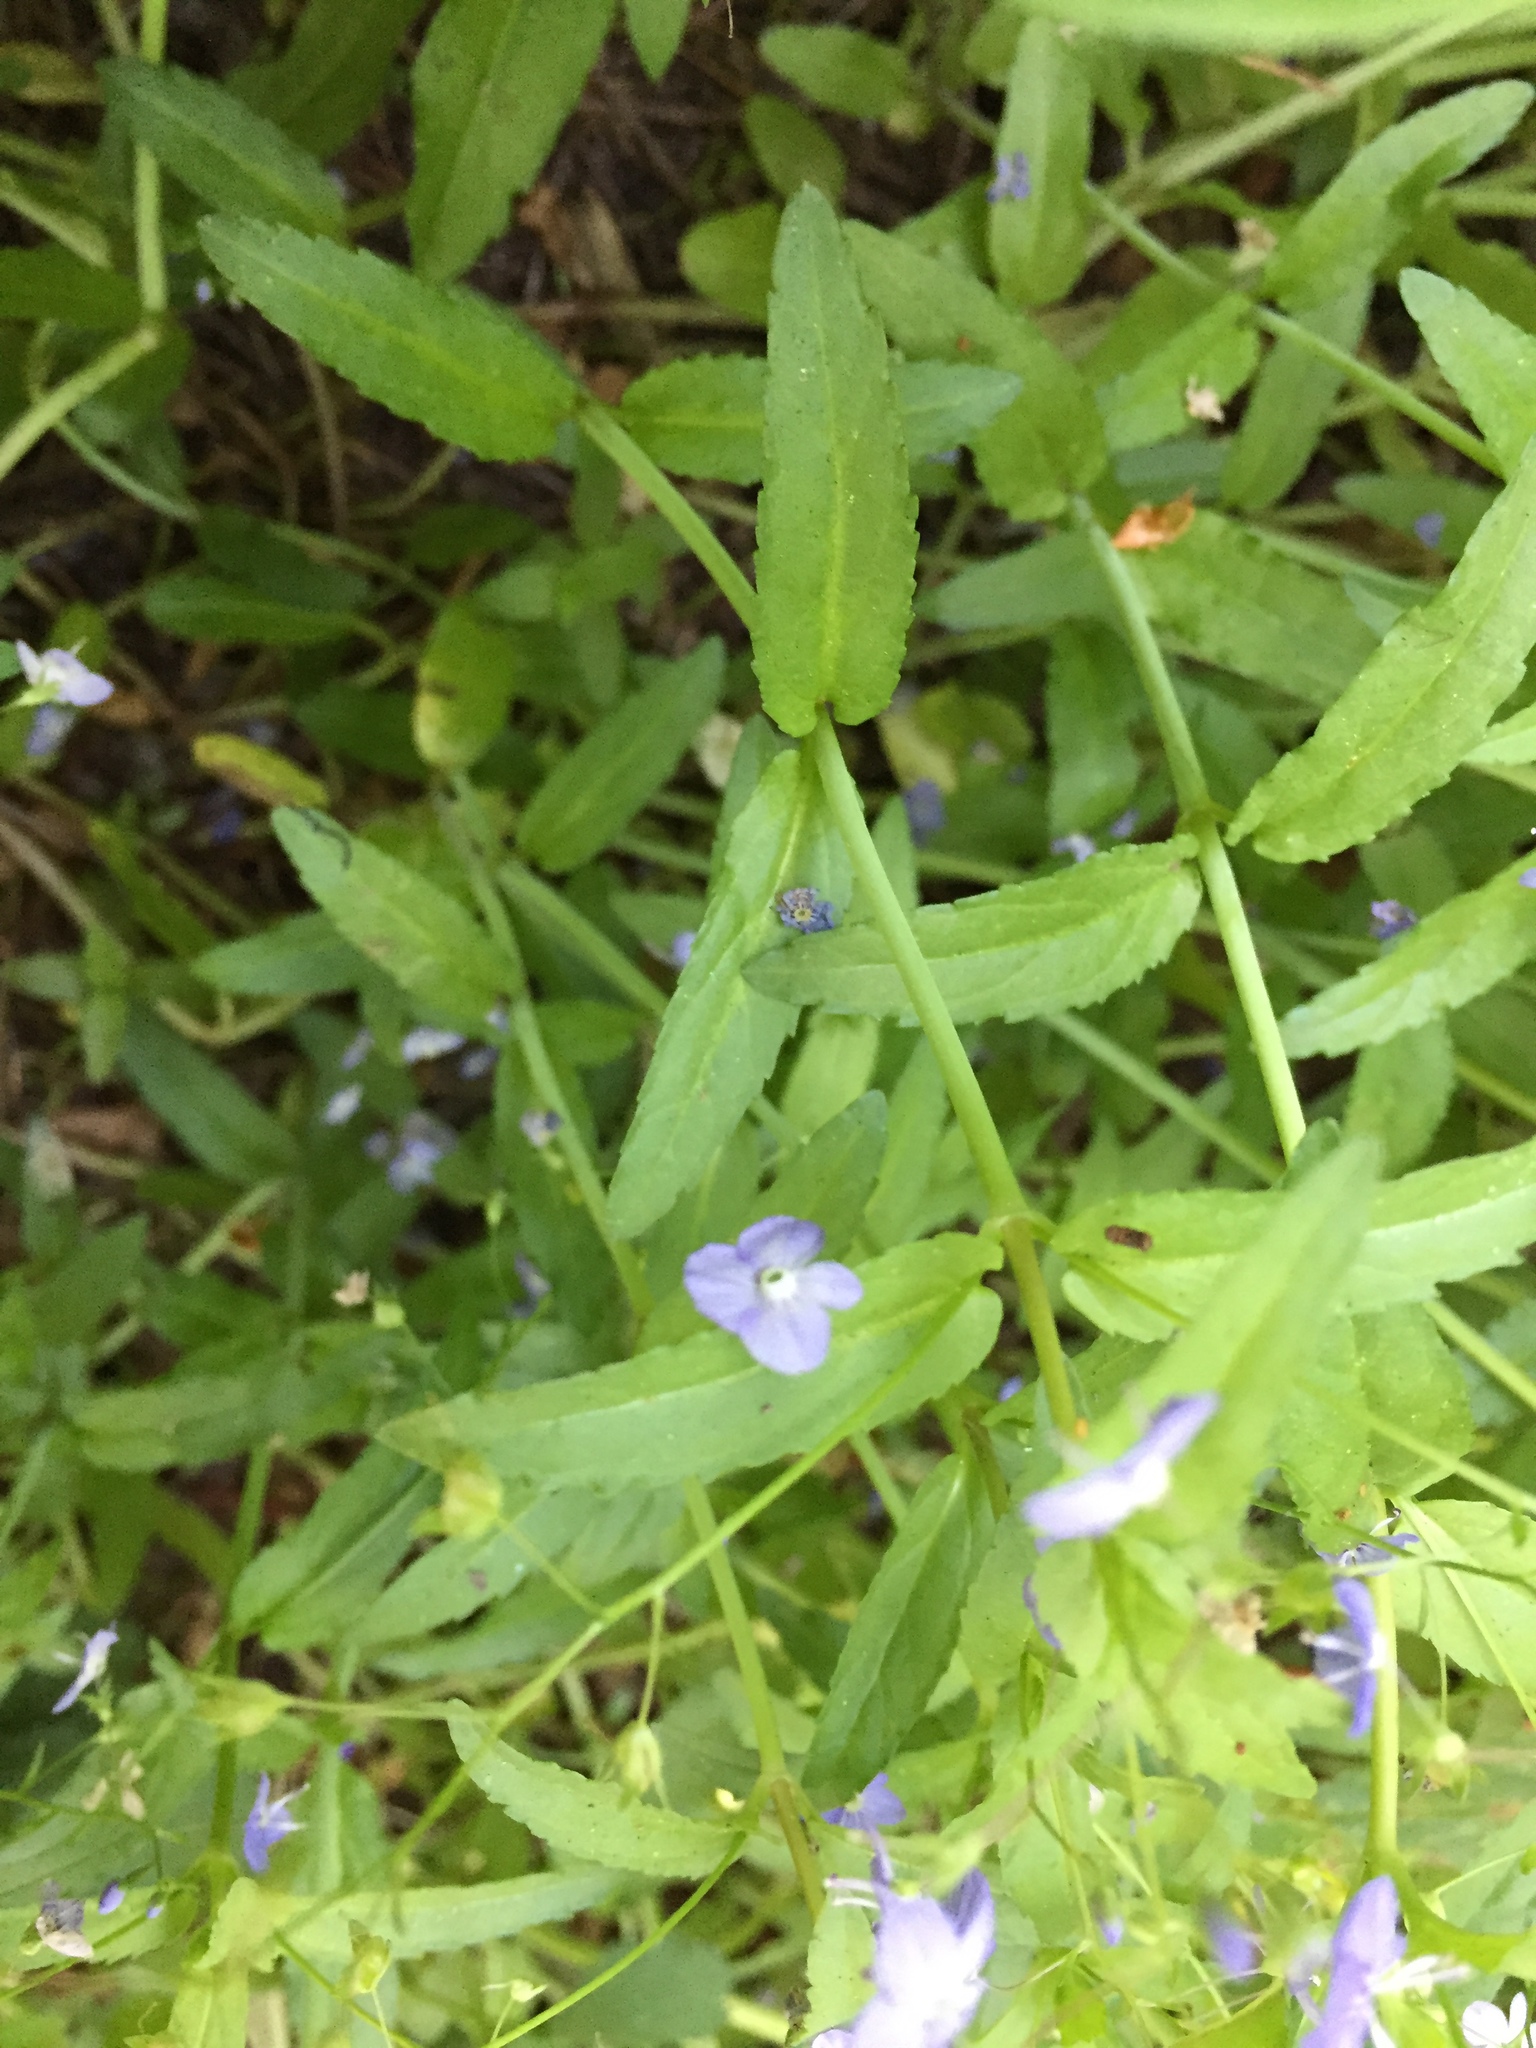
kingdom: Plantae
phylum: Tracheophyta
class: Magnoliopsida
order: Lamiales
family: Plantaginaceae
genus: Veronica
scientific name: Veronica americana
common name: American brooklime
